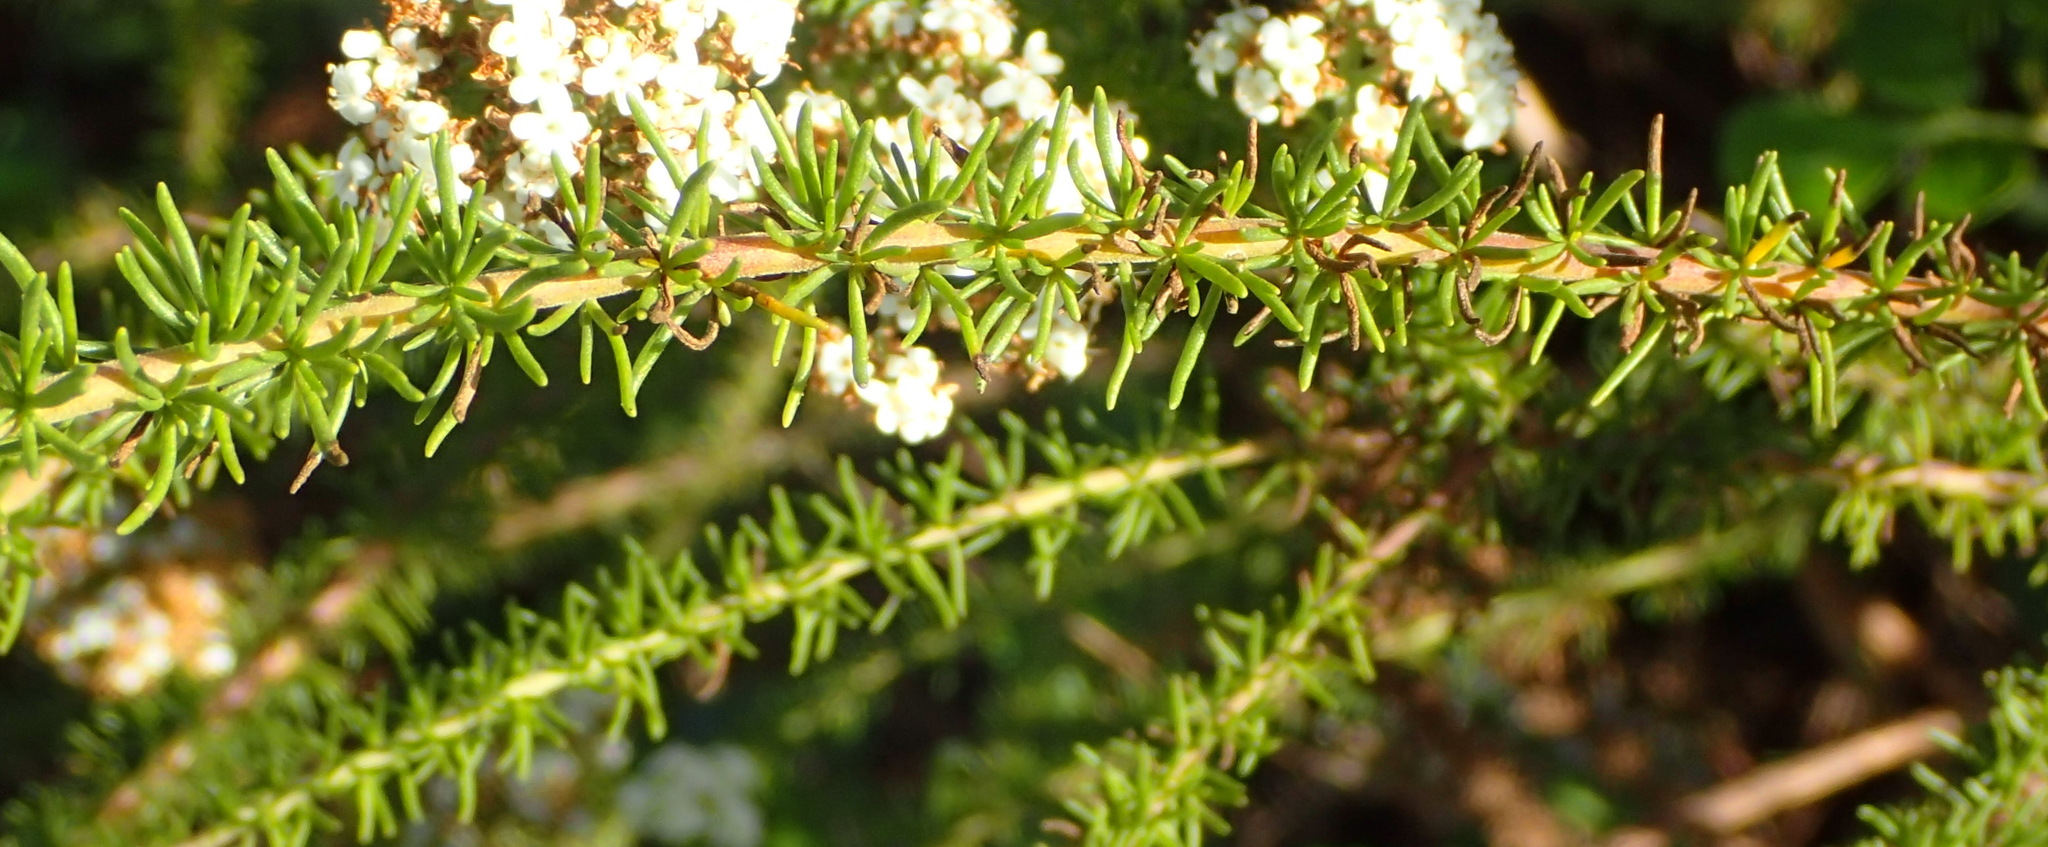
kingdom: Plantae
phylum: Tracheophyta
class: Magnoliopsida
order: Lamiales
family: Scrophulariaceae
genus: Selago
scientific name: Selago corymbosa
